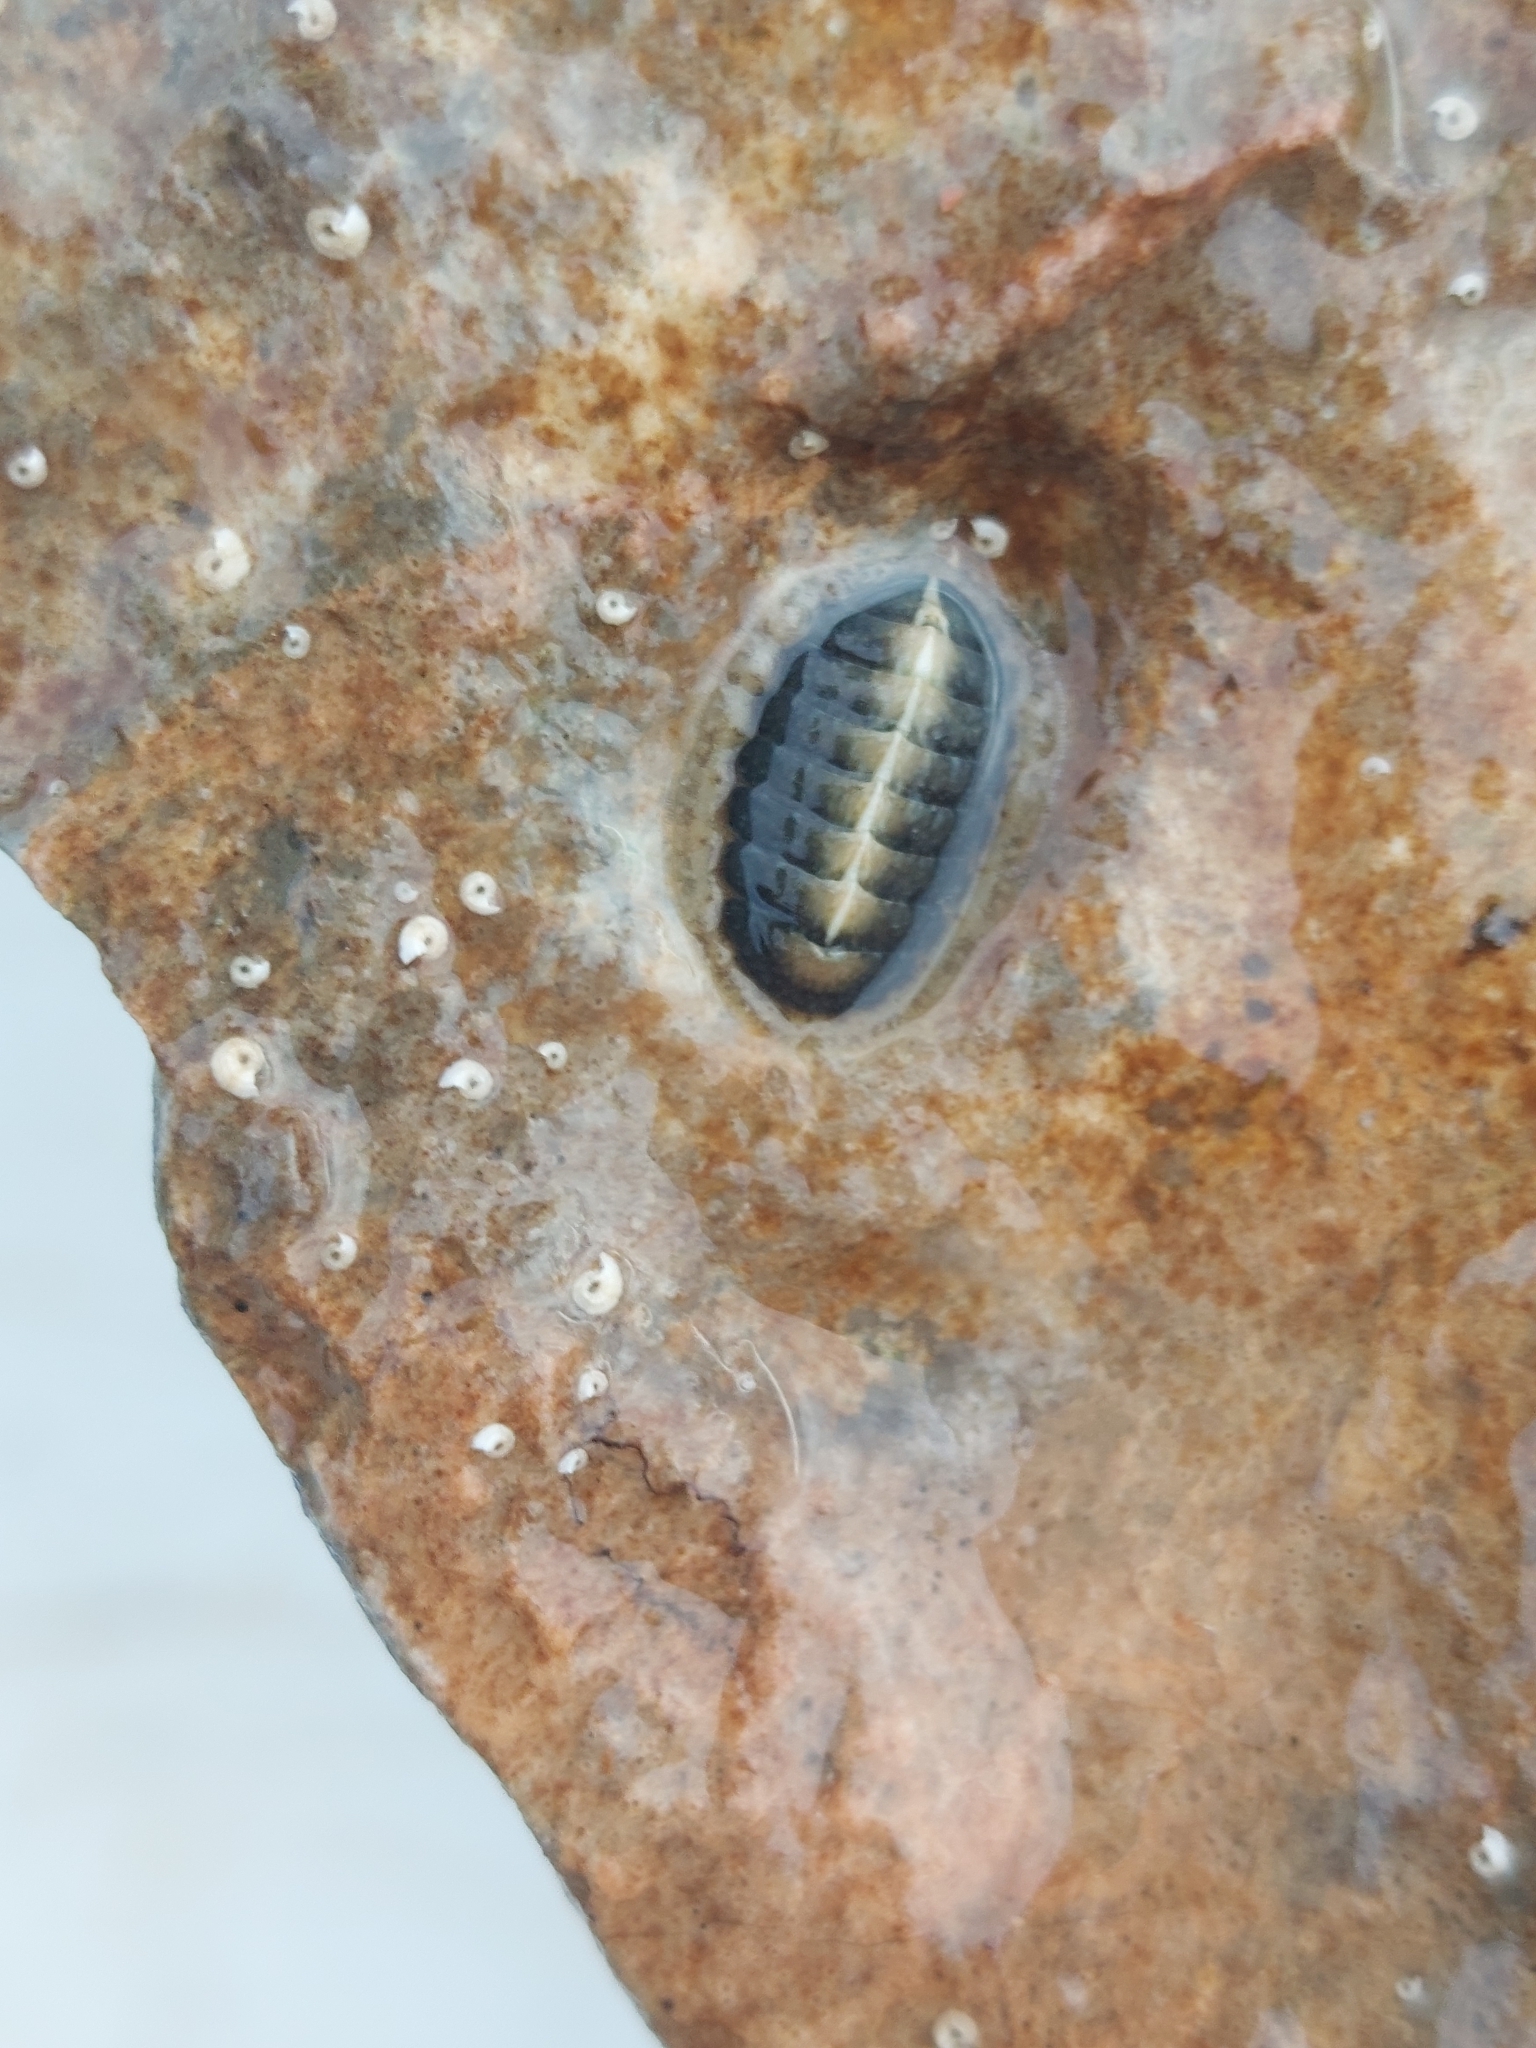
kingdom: Animalia
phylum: Mollusca
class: Polyplacophora
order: Chitonida
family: Tonicellidae
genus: Lepidochitona
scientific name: Lepidochitona cinerea
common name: Cinereous chiton
